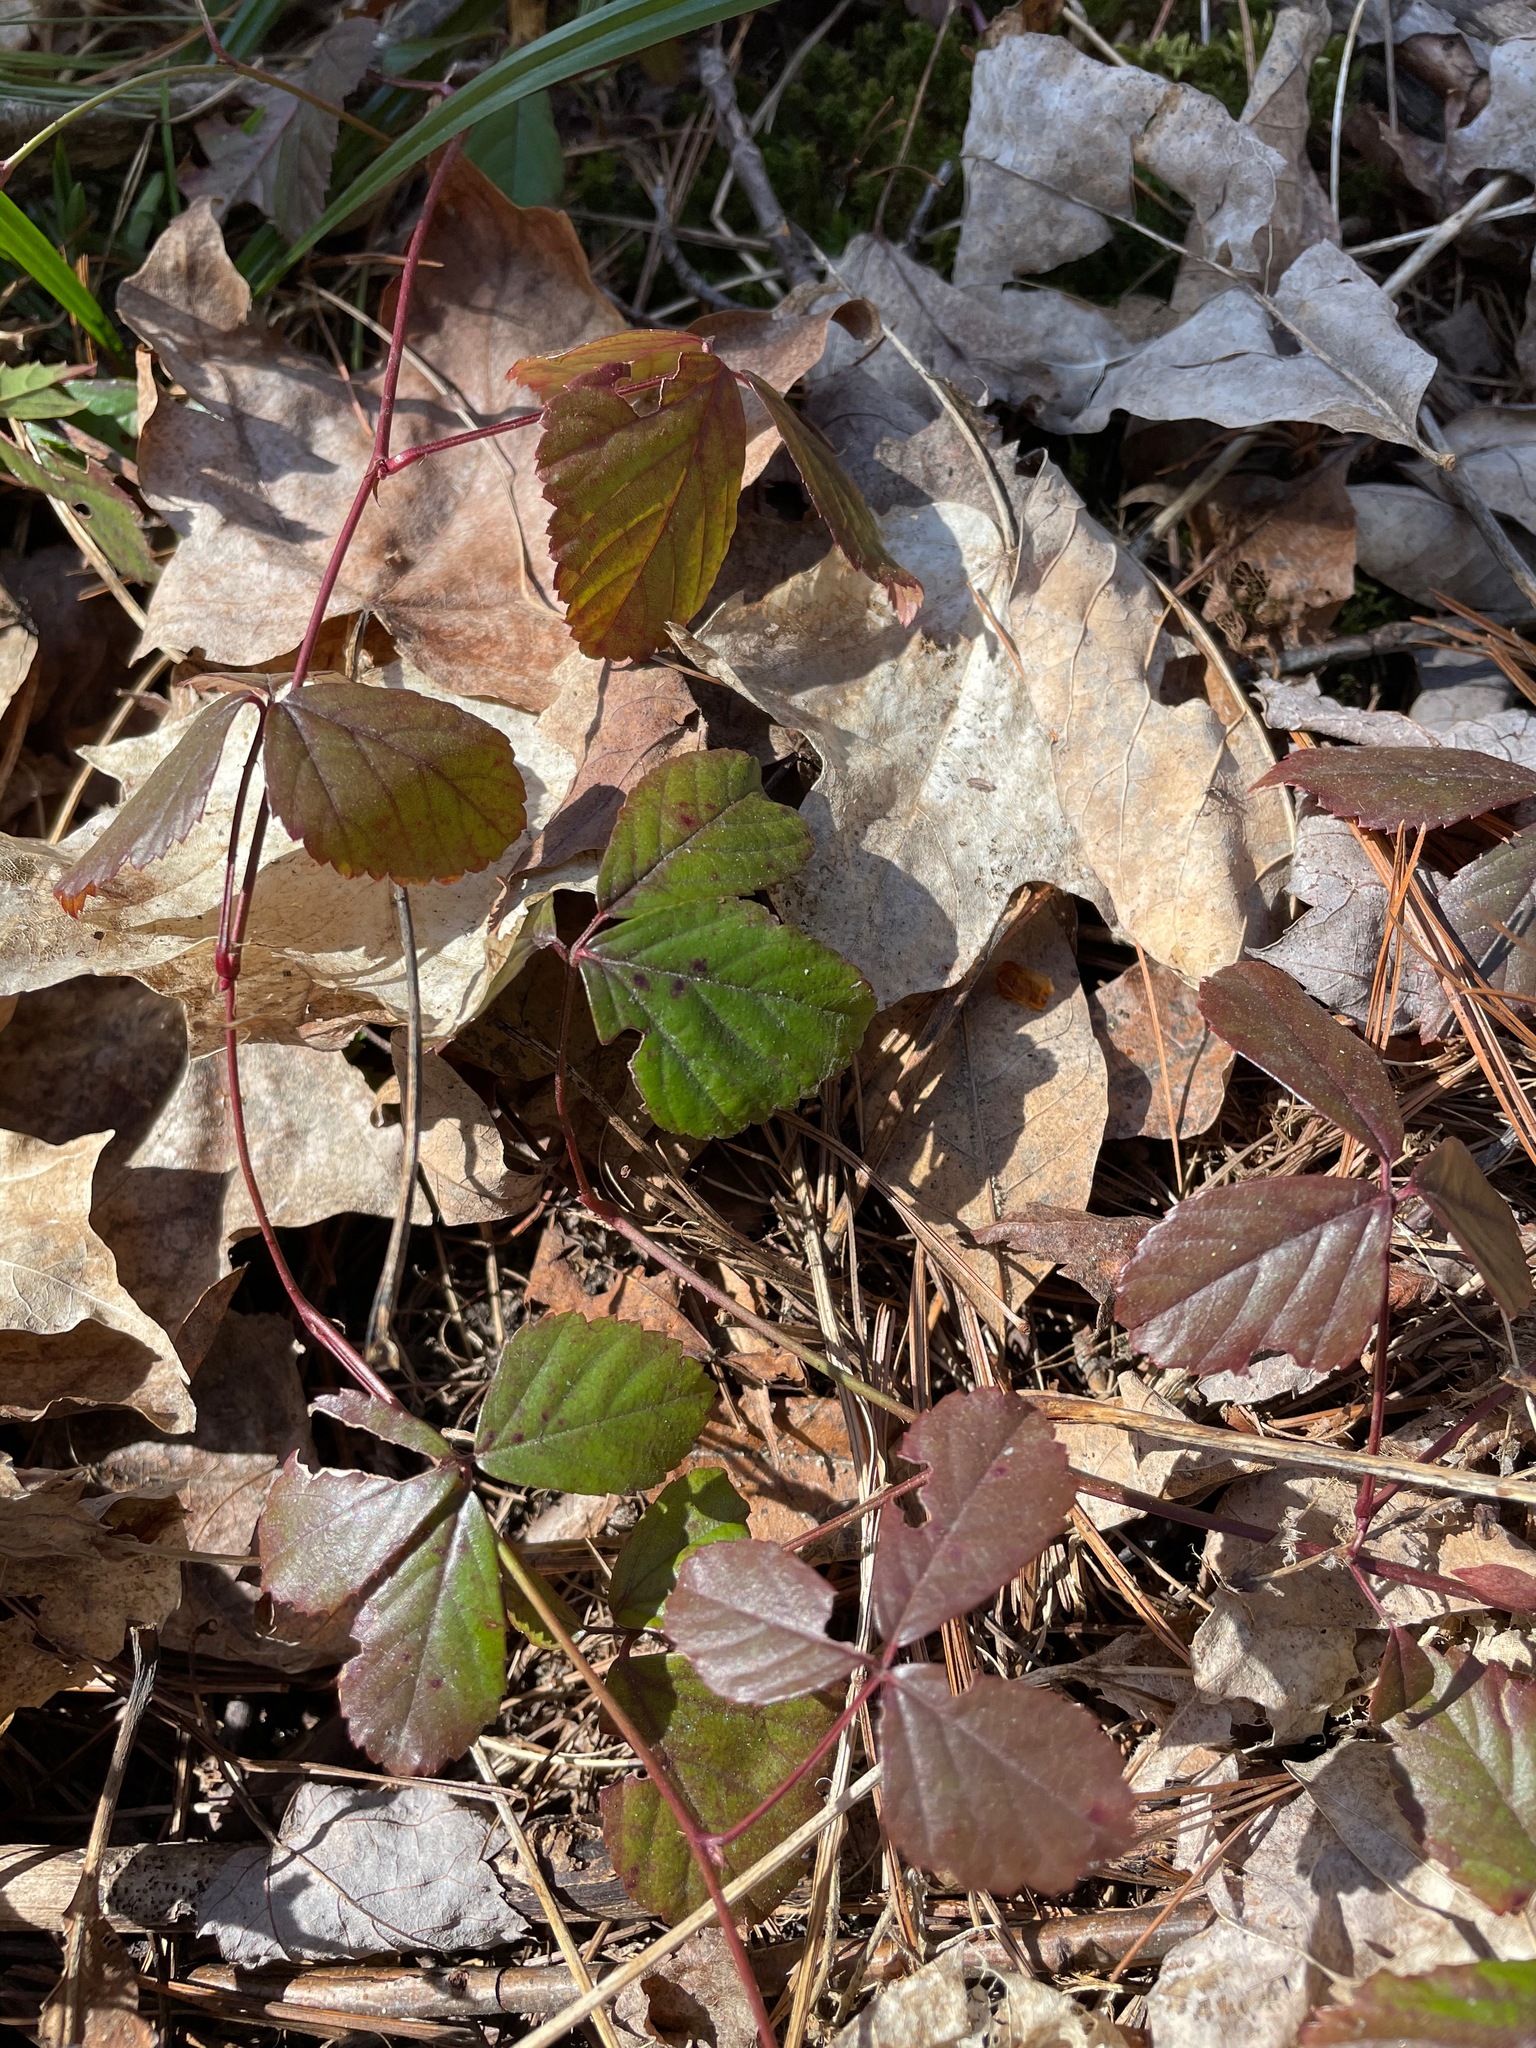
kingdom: Plantae
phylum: Tracheophyta
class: Magnoliopsida
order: Rosales
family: Rosaceae
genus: Rubus
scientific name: Rubus flagellaris
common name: American dewberry
